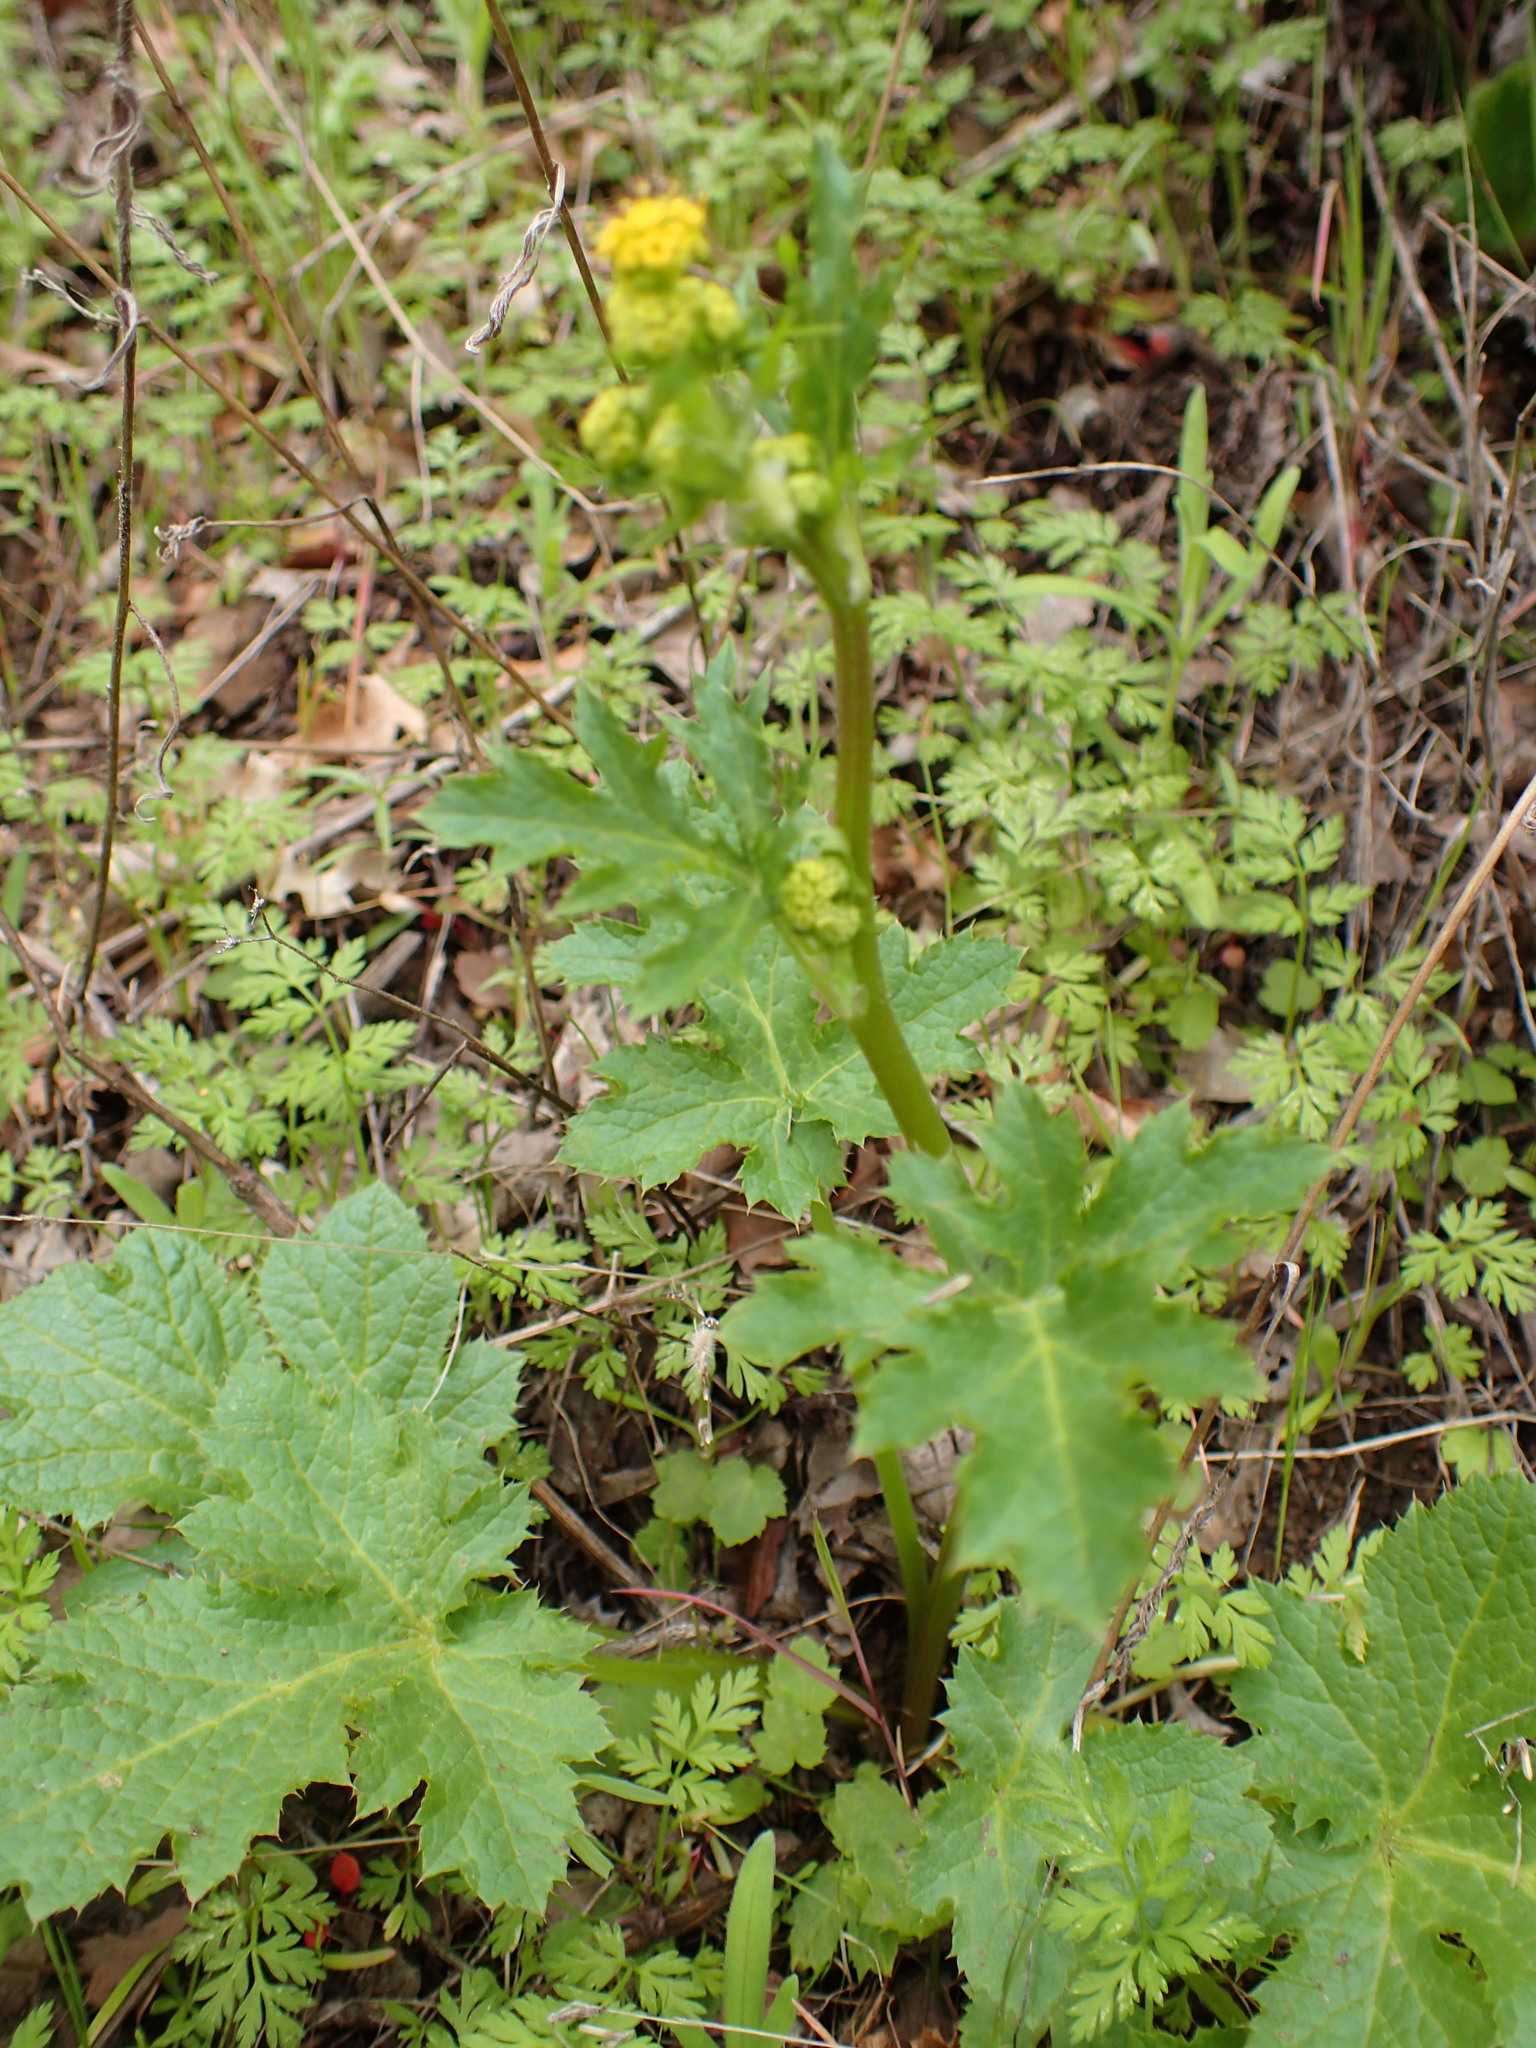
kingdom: Plantae
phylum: Tracheophyta
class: Magnoliopsida
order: Apiales
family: Apiaceae
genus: Sanicula
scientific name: Sanicula crassicaulis
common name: Western snakeroot
